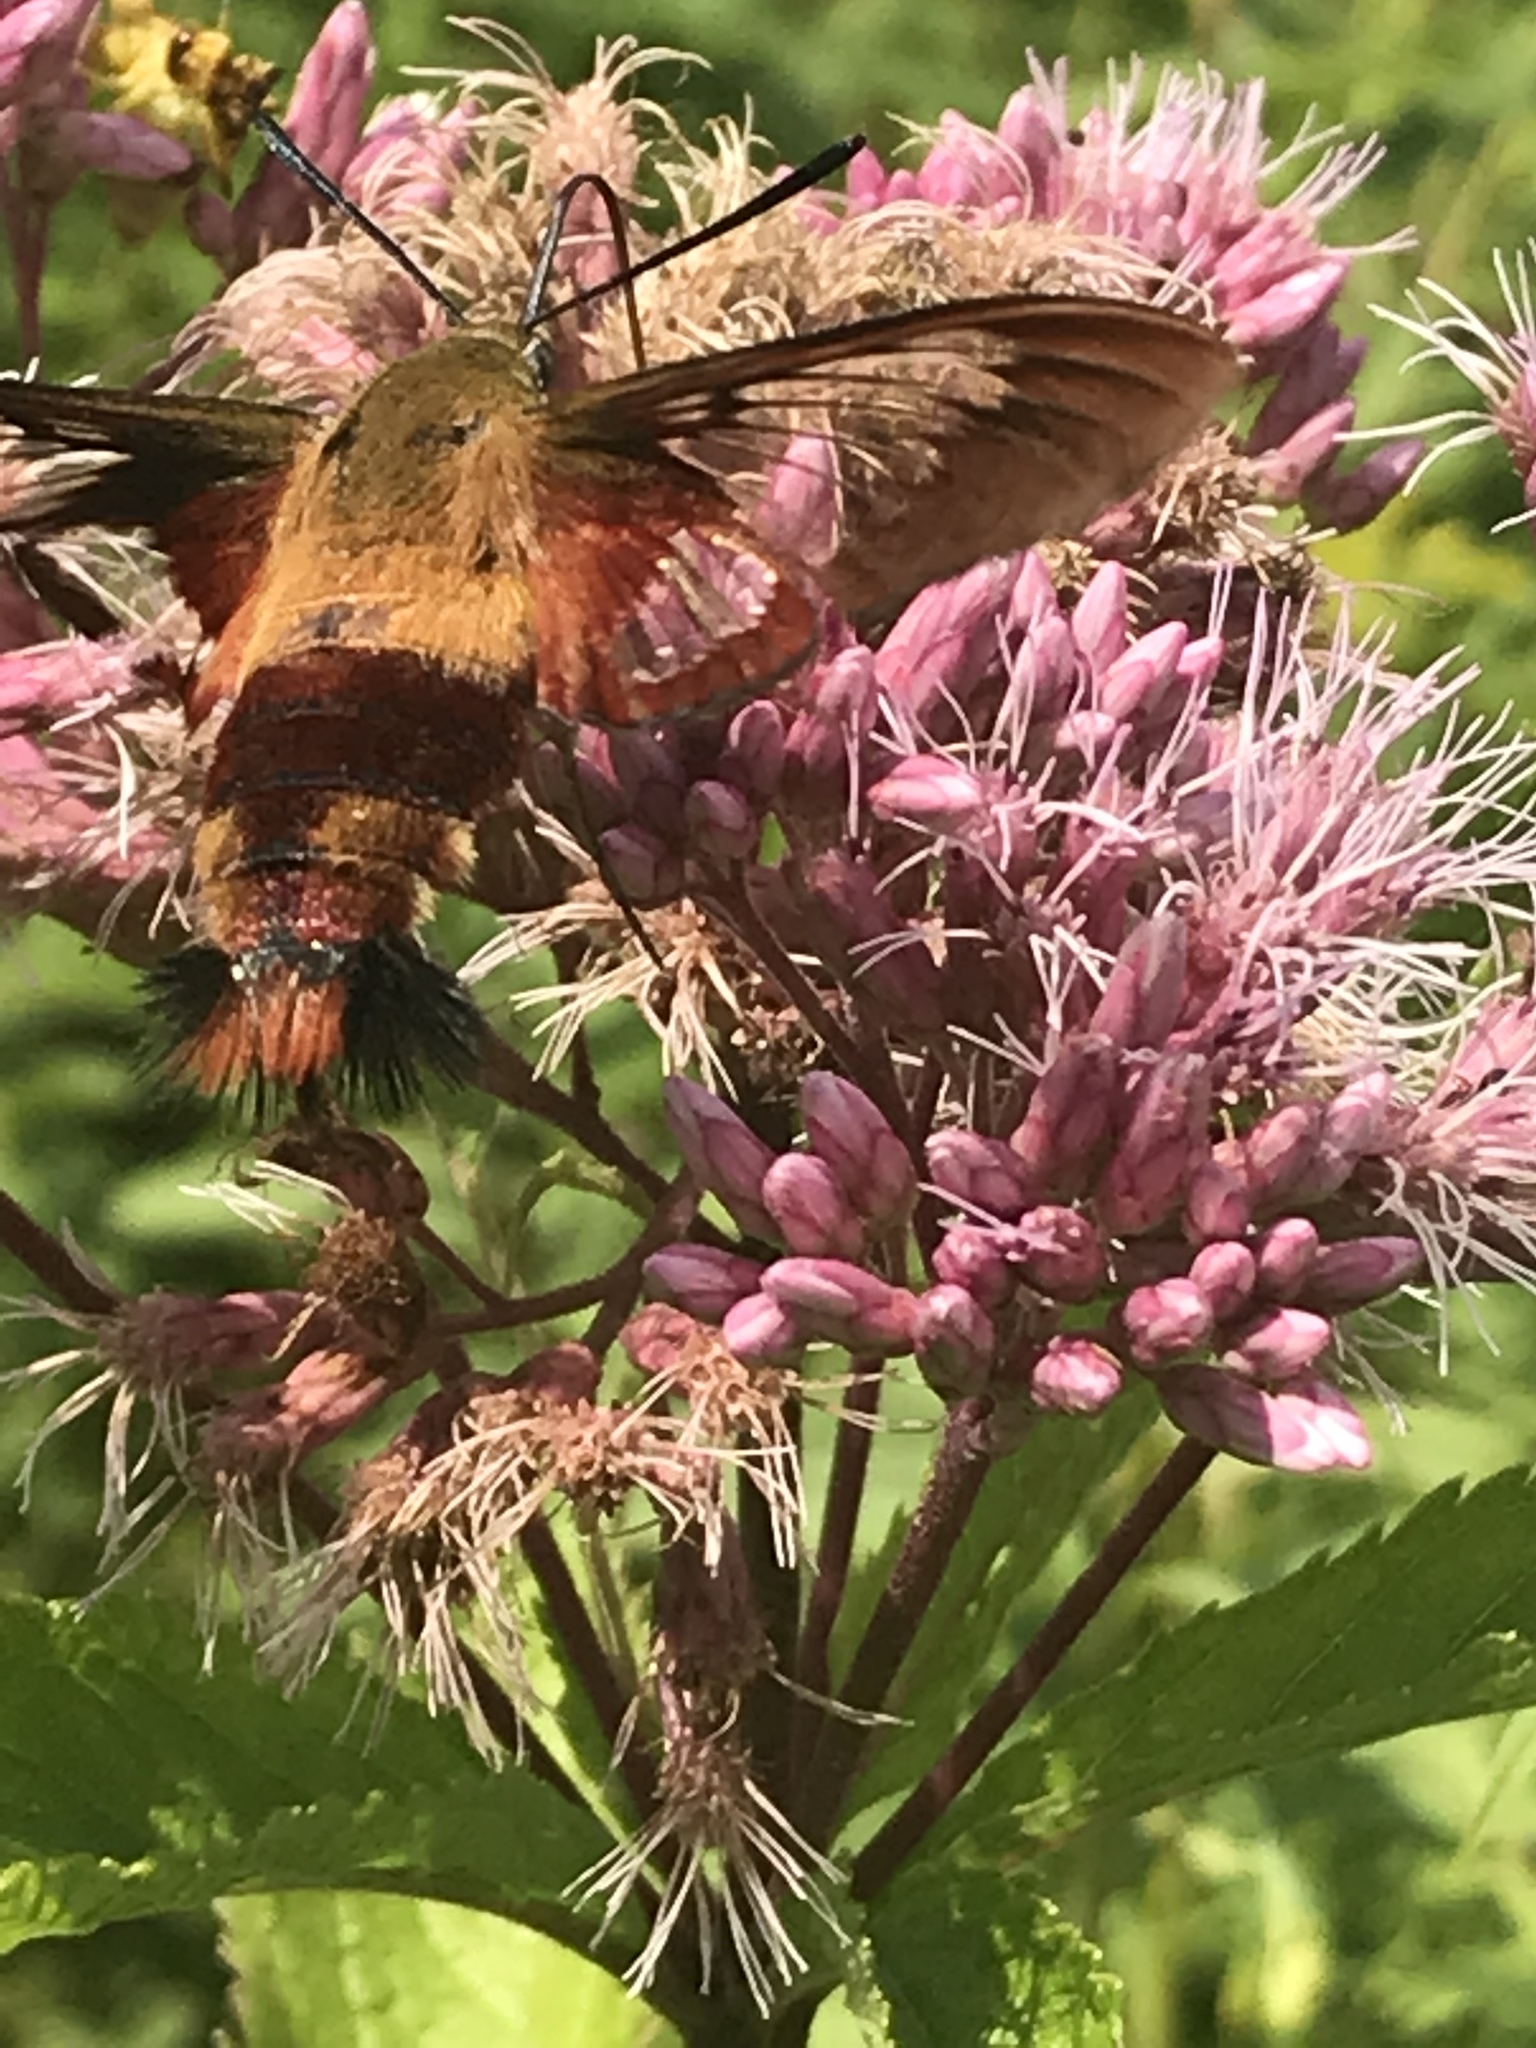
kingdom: Animalia
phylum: Arthropoda
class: Insecta
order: Lepidoptera
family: Sphingidae
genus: Hemaris
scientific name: Hemaris thysbe
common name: Common clear-wing
